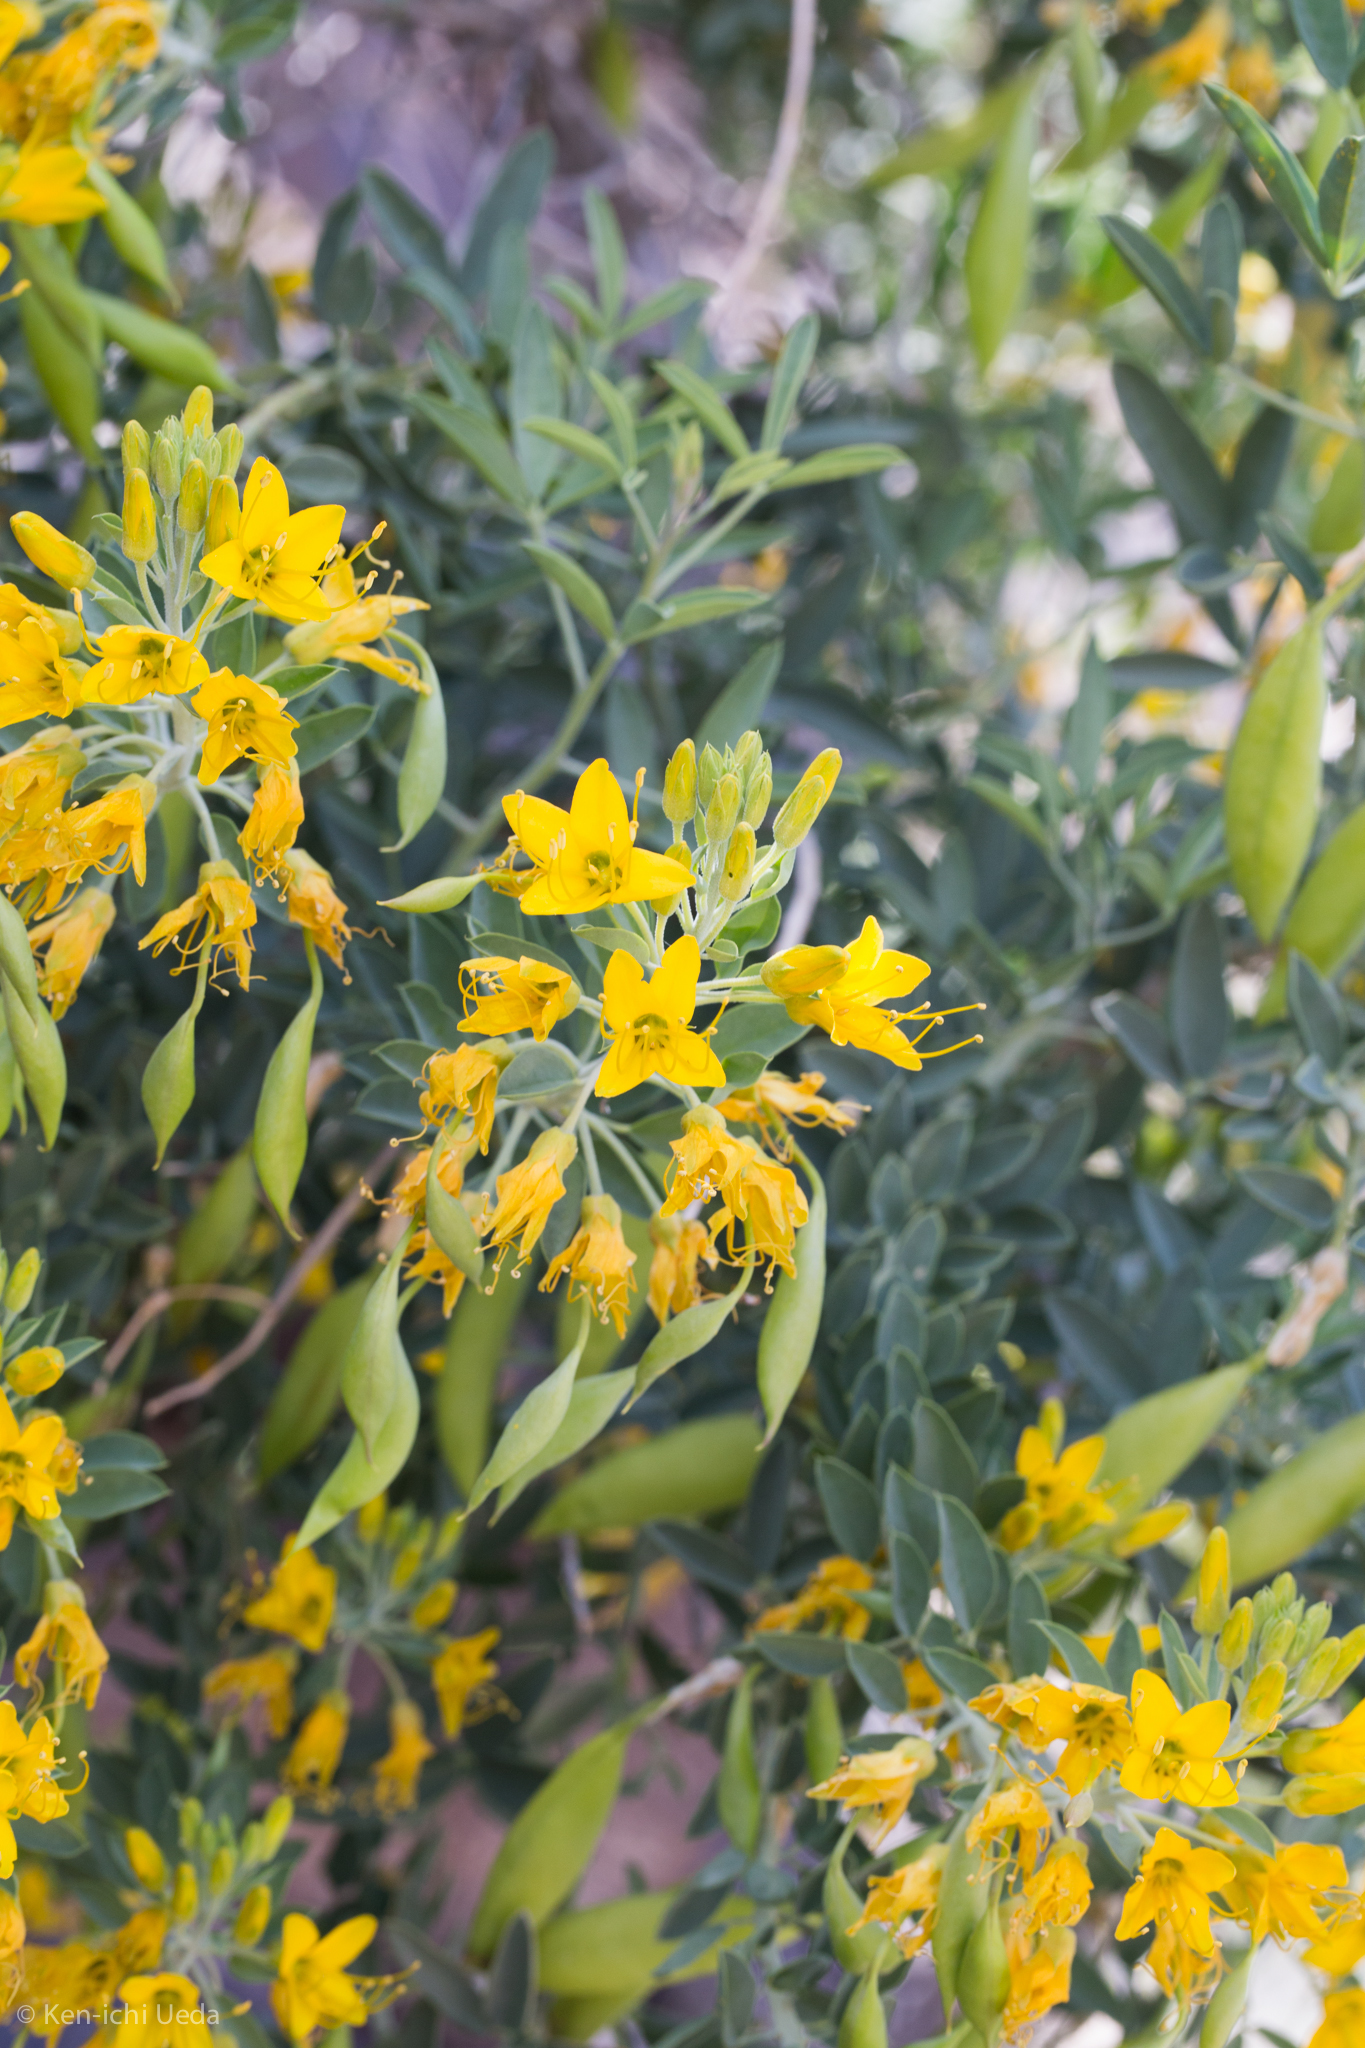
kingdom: Plantae
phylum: Tracheophyta
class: Magnoliopsida
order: Brassicales
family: Cleomaceae
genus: Cleomella
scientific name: Cleomella arborea
